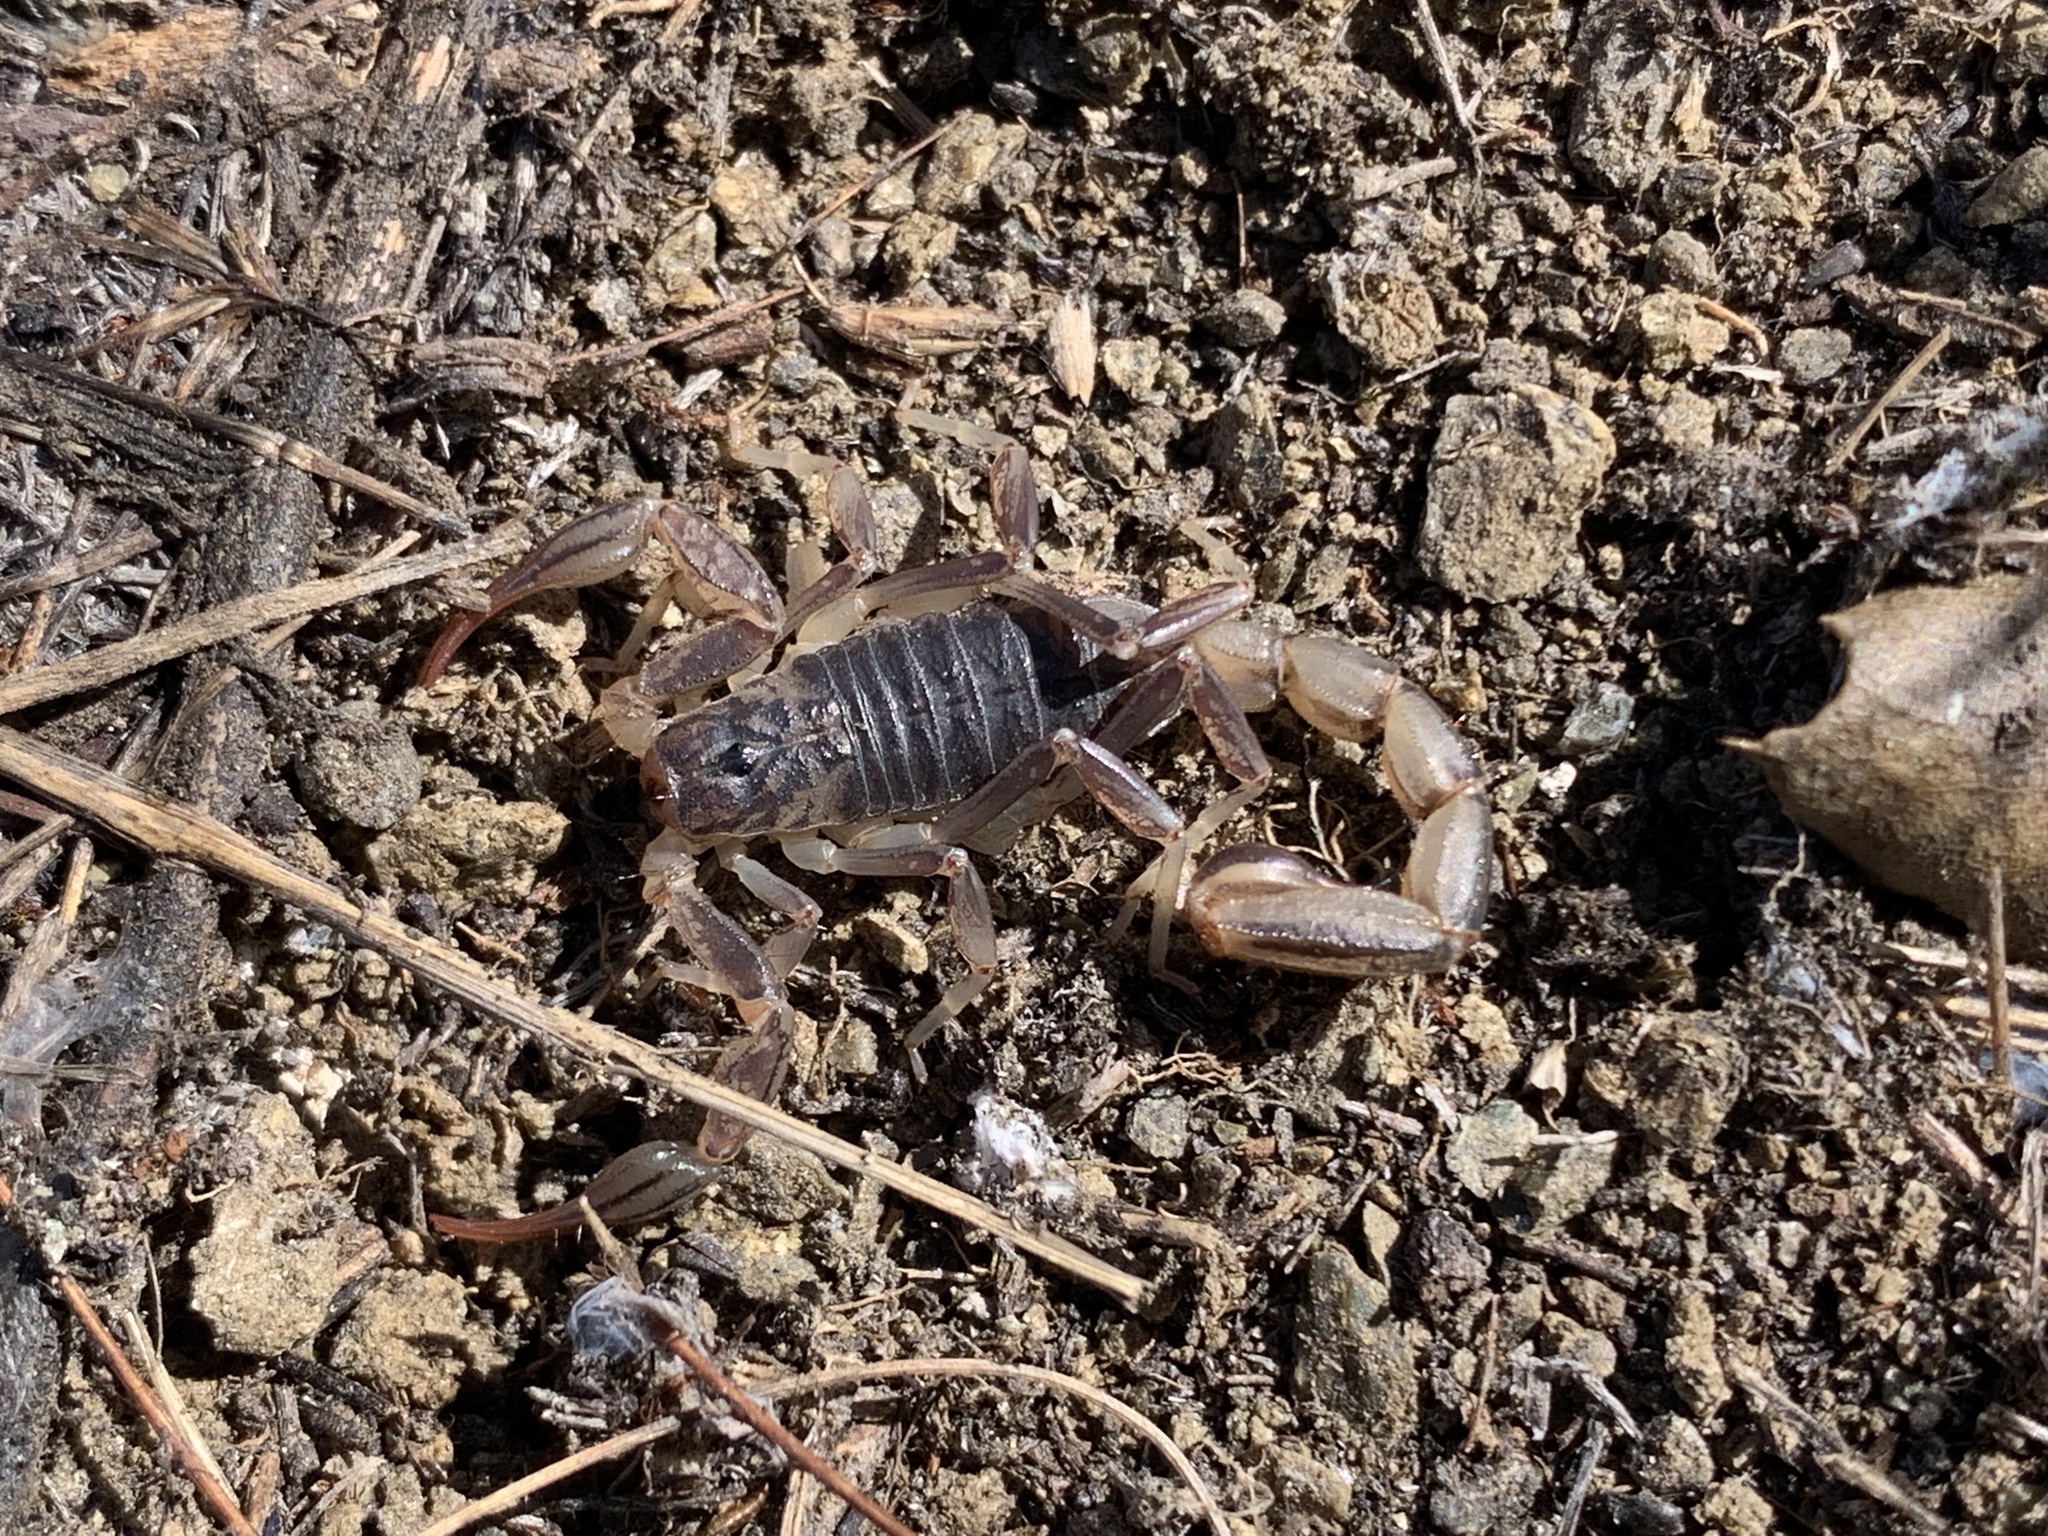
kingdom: Animalia
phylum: Arthropoda
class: Arachnida
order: Scorpiones
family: Vaejovidae
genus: Paruroctonus
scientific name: Paruroctonus silvestrii
